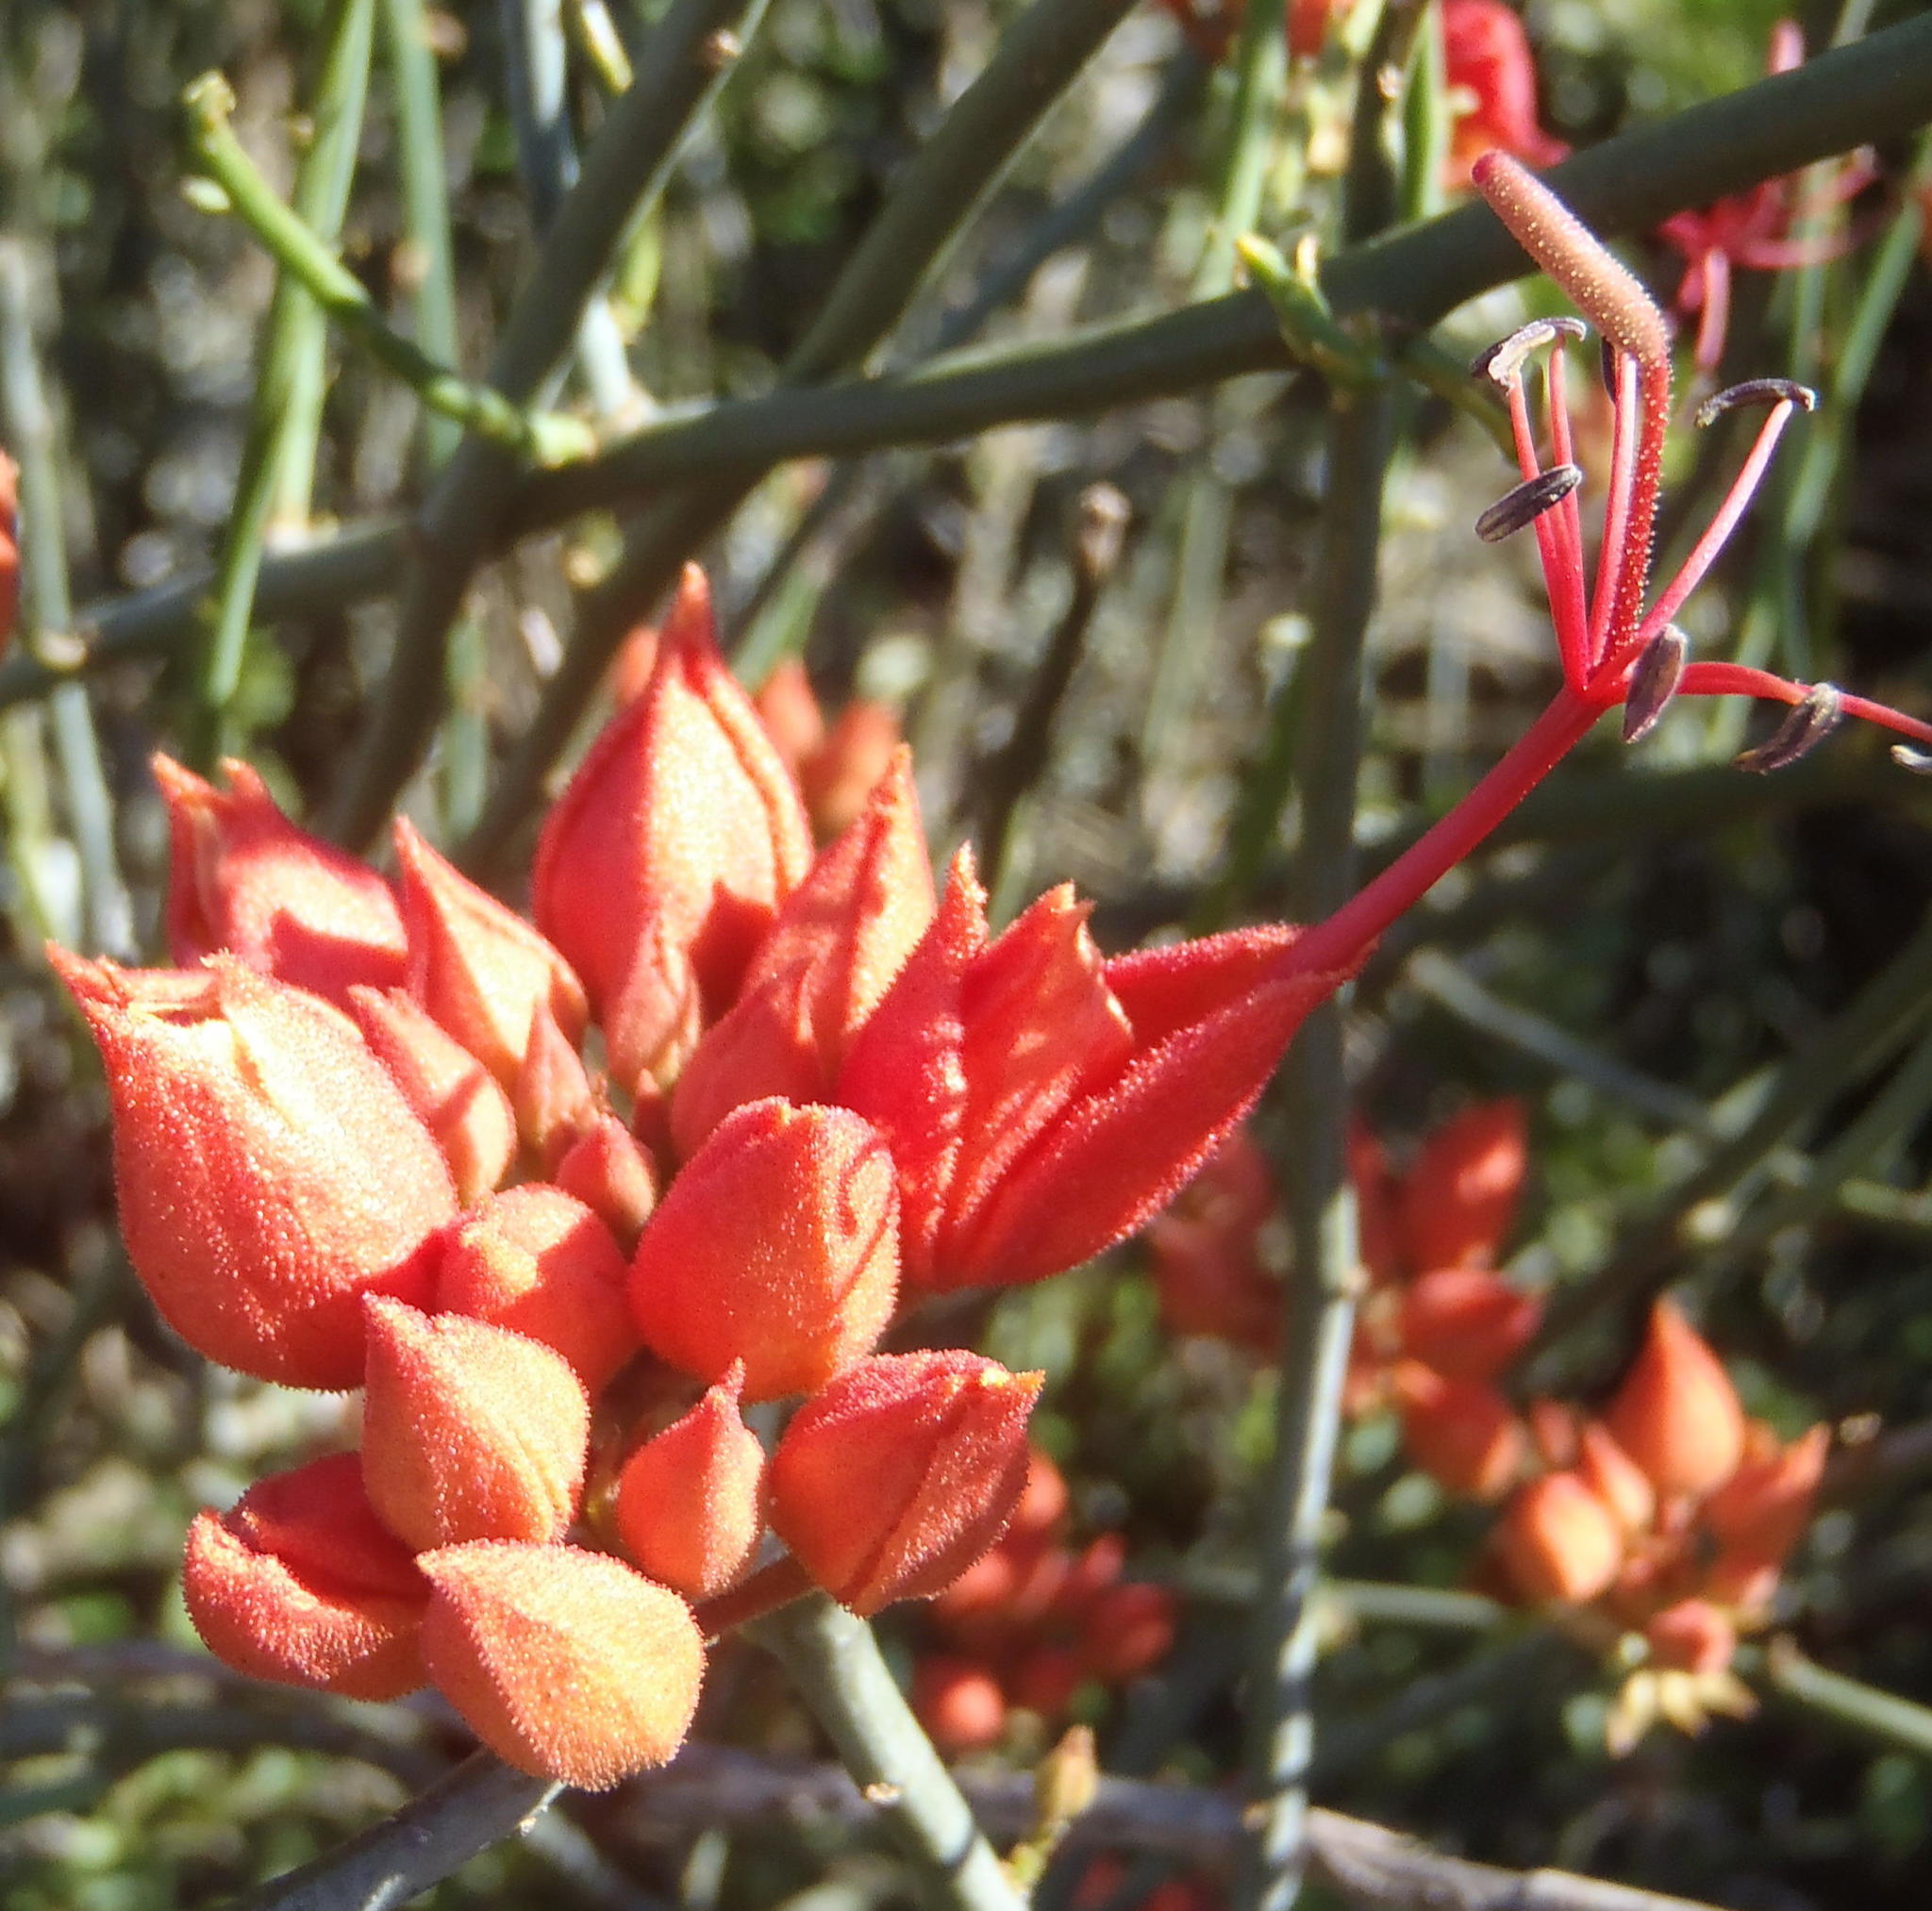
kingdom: Plantae
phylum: Tracheophyta
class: Magnoliopsida
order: Brassicales
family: Capparaceae
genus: Cadaba
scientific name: Cadaba aphylla
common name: Black storm
